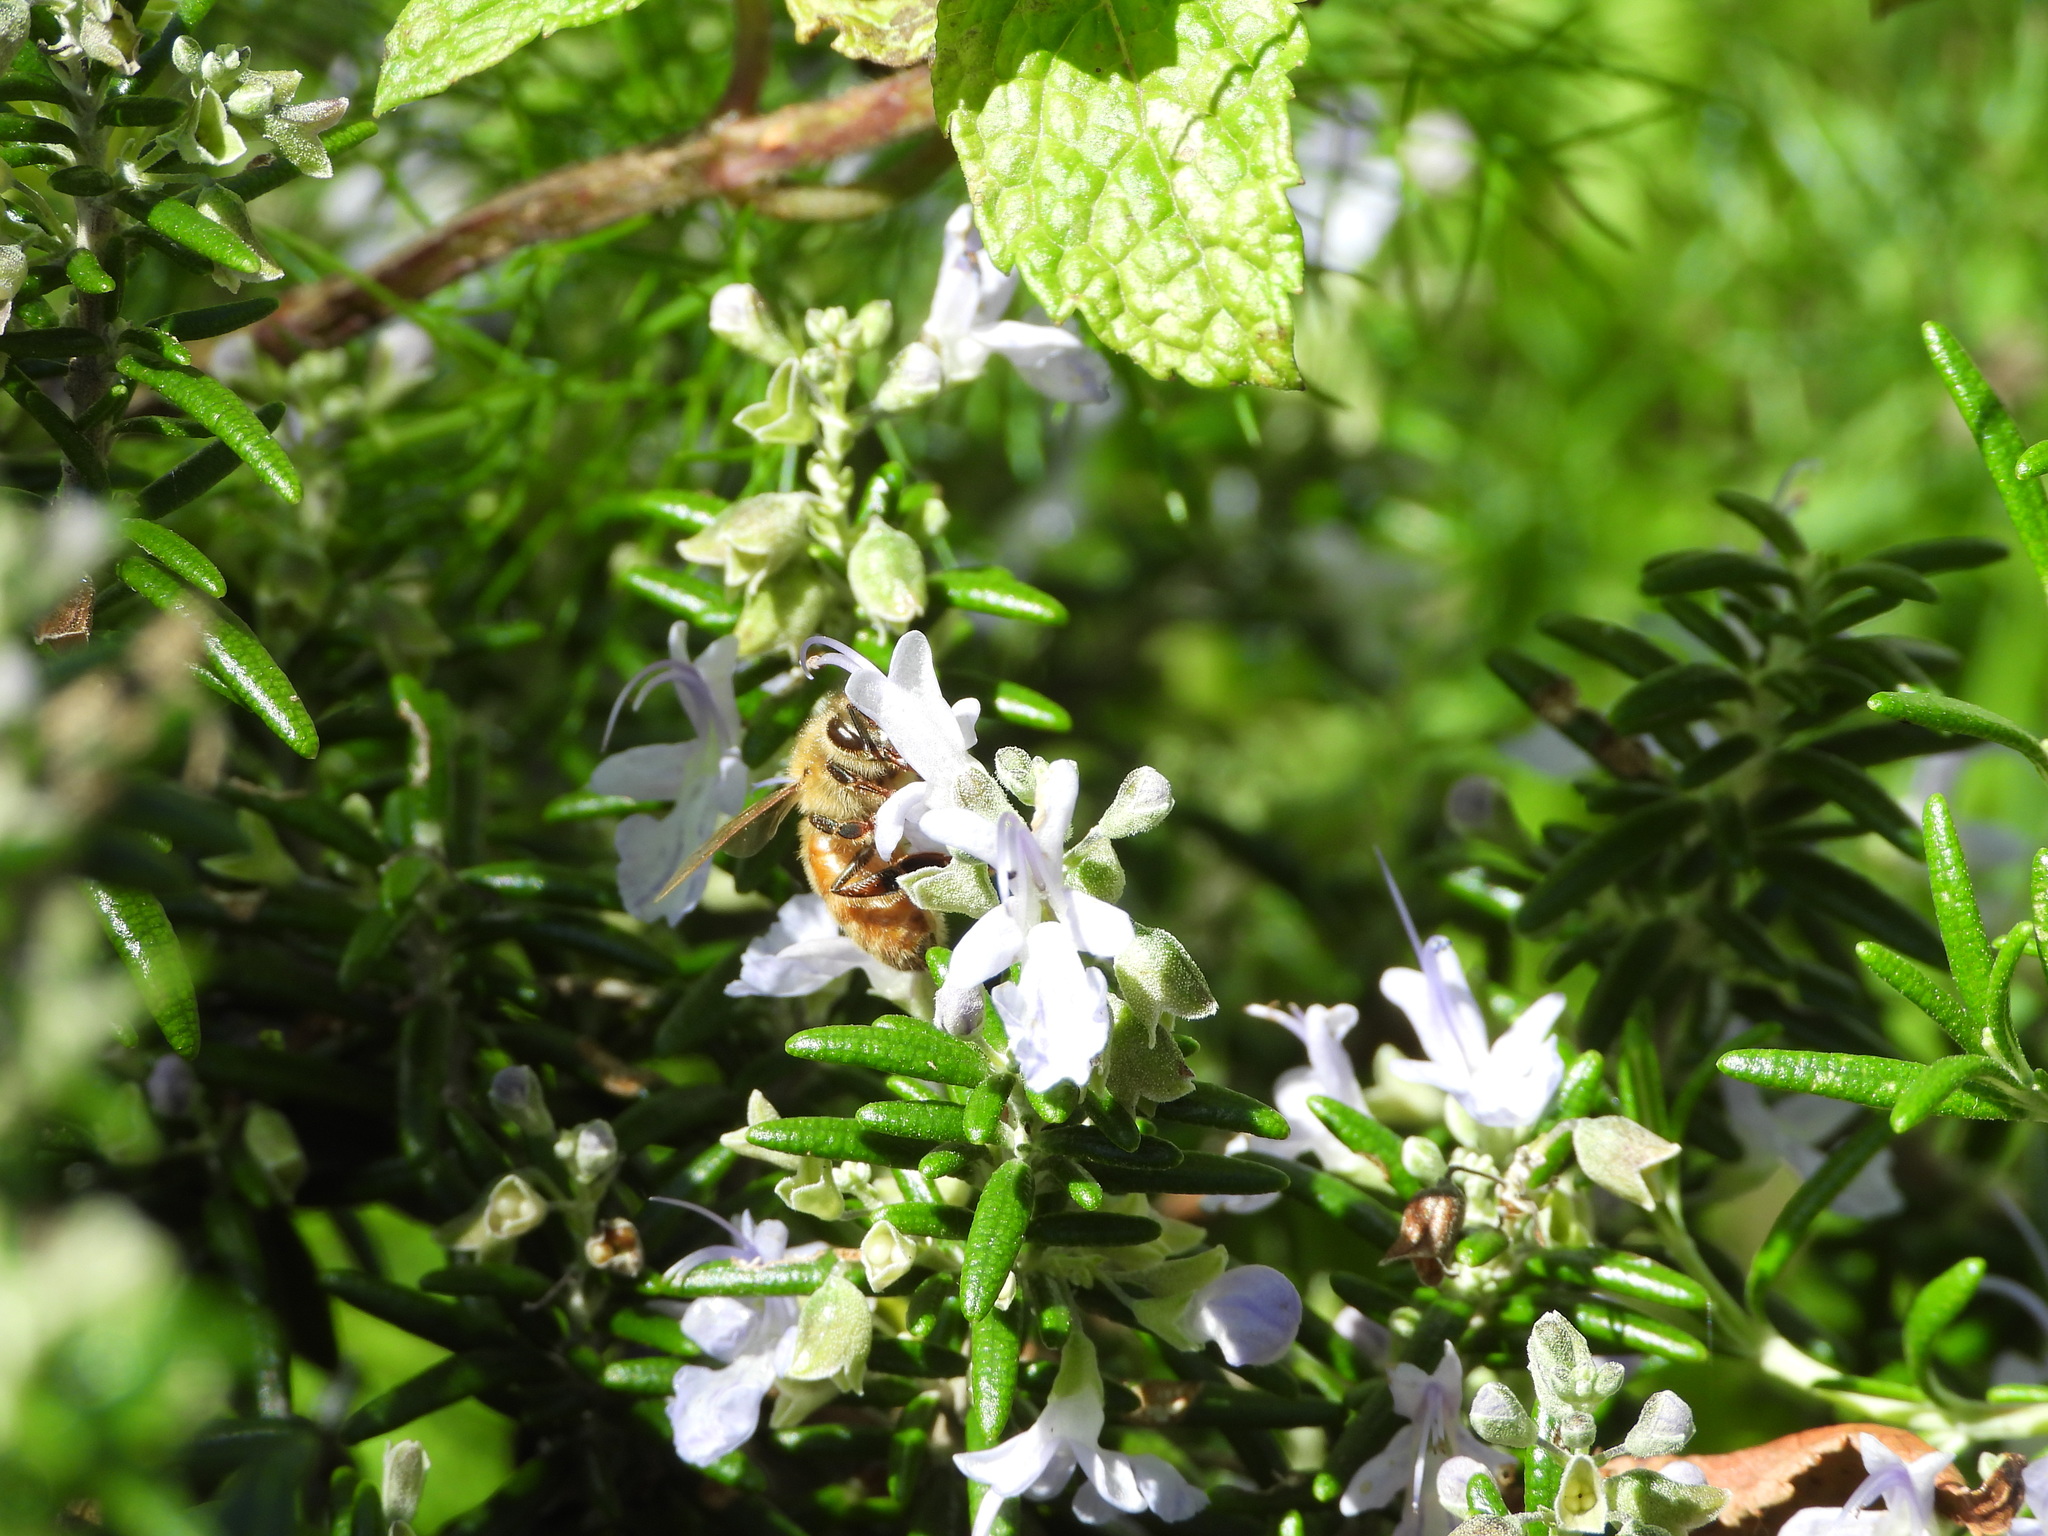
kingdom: Animalia
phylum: Arthropoda
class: Insecta
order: Hymenoptera
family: Apidae
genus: Apis
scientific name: Apis mellifera
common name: Honey bee
